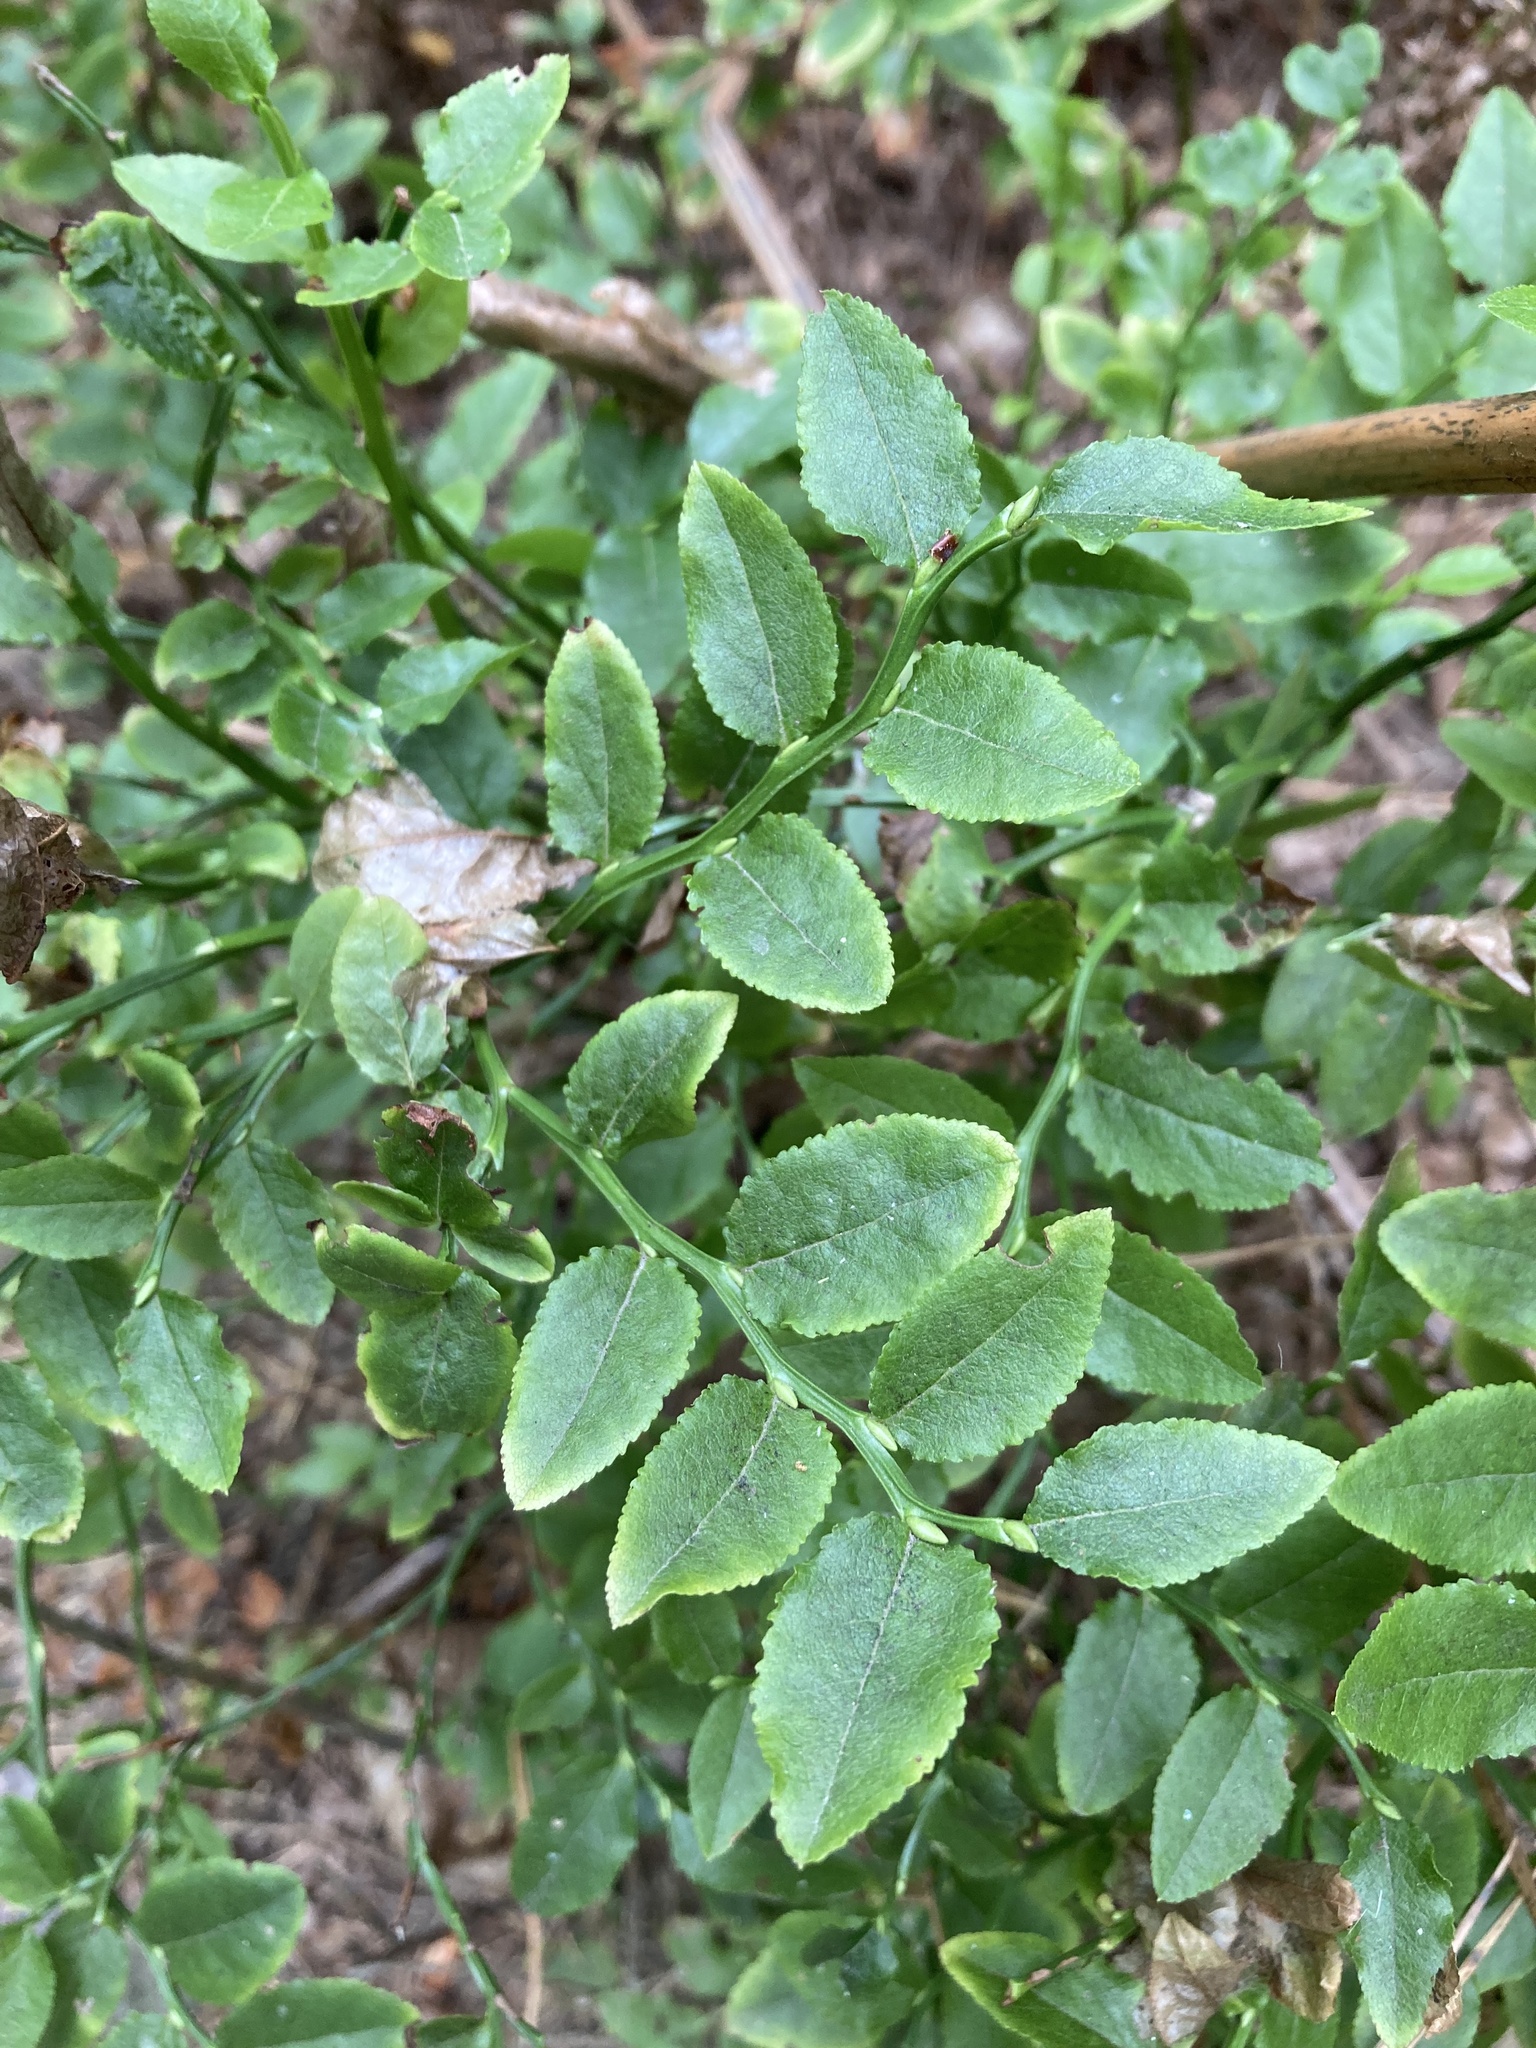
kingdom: Plantae
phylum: Tracheophyta
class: Magnoliopsida
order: Ericales
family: Ericaceae
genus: Vaccinium
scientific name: Vaccinium myrtillus
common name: Bilberry
